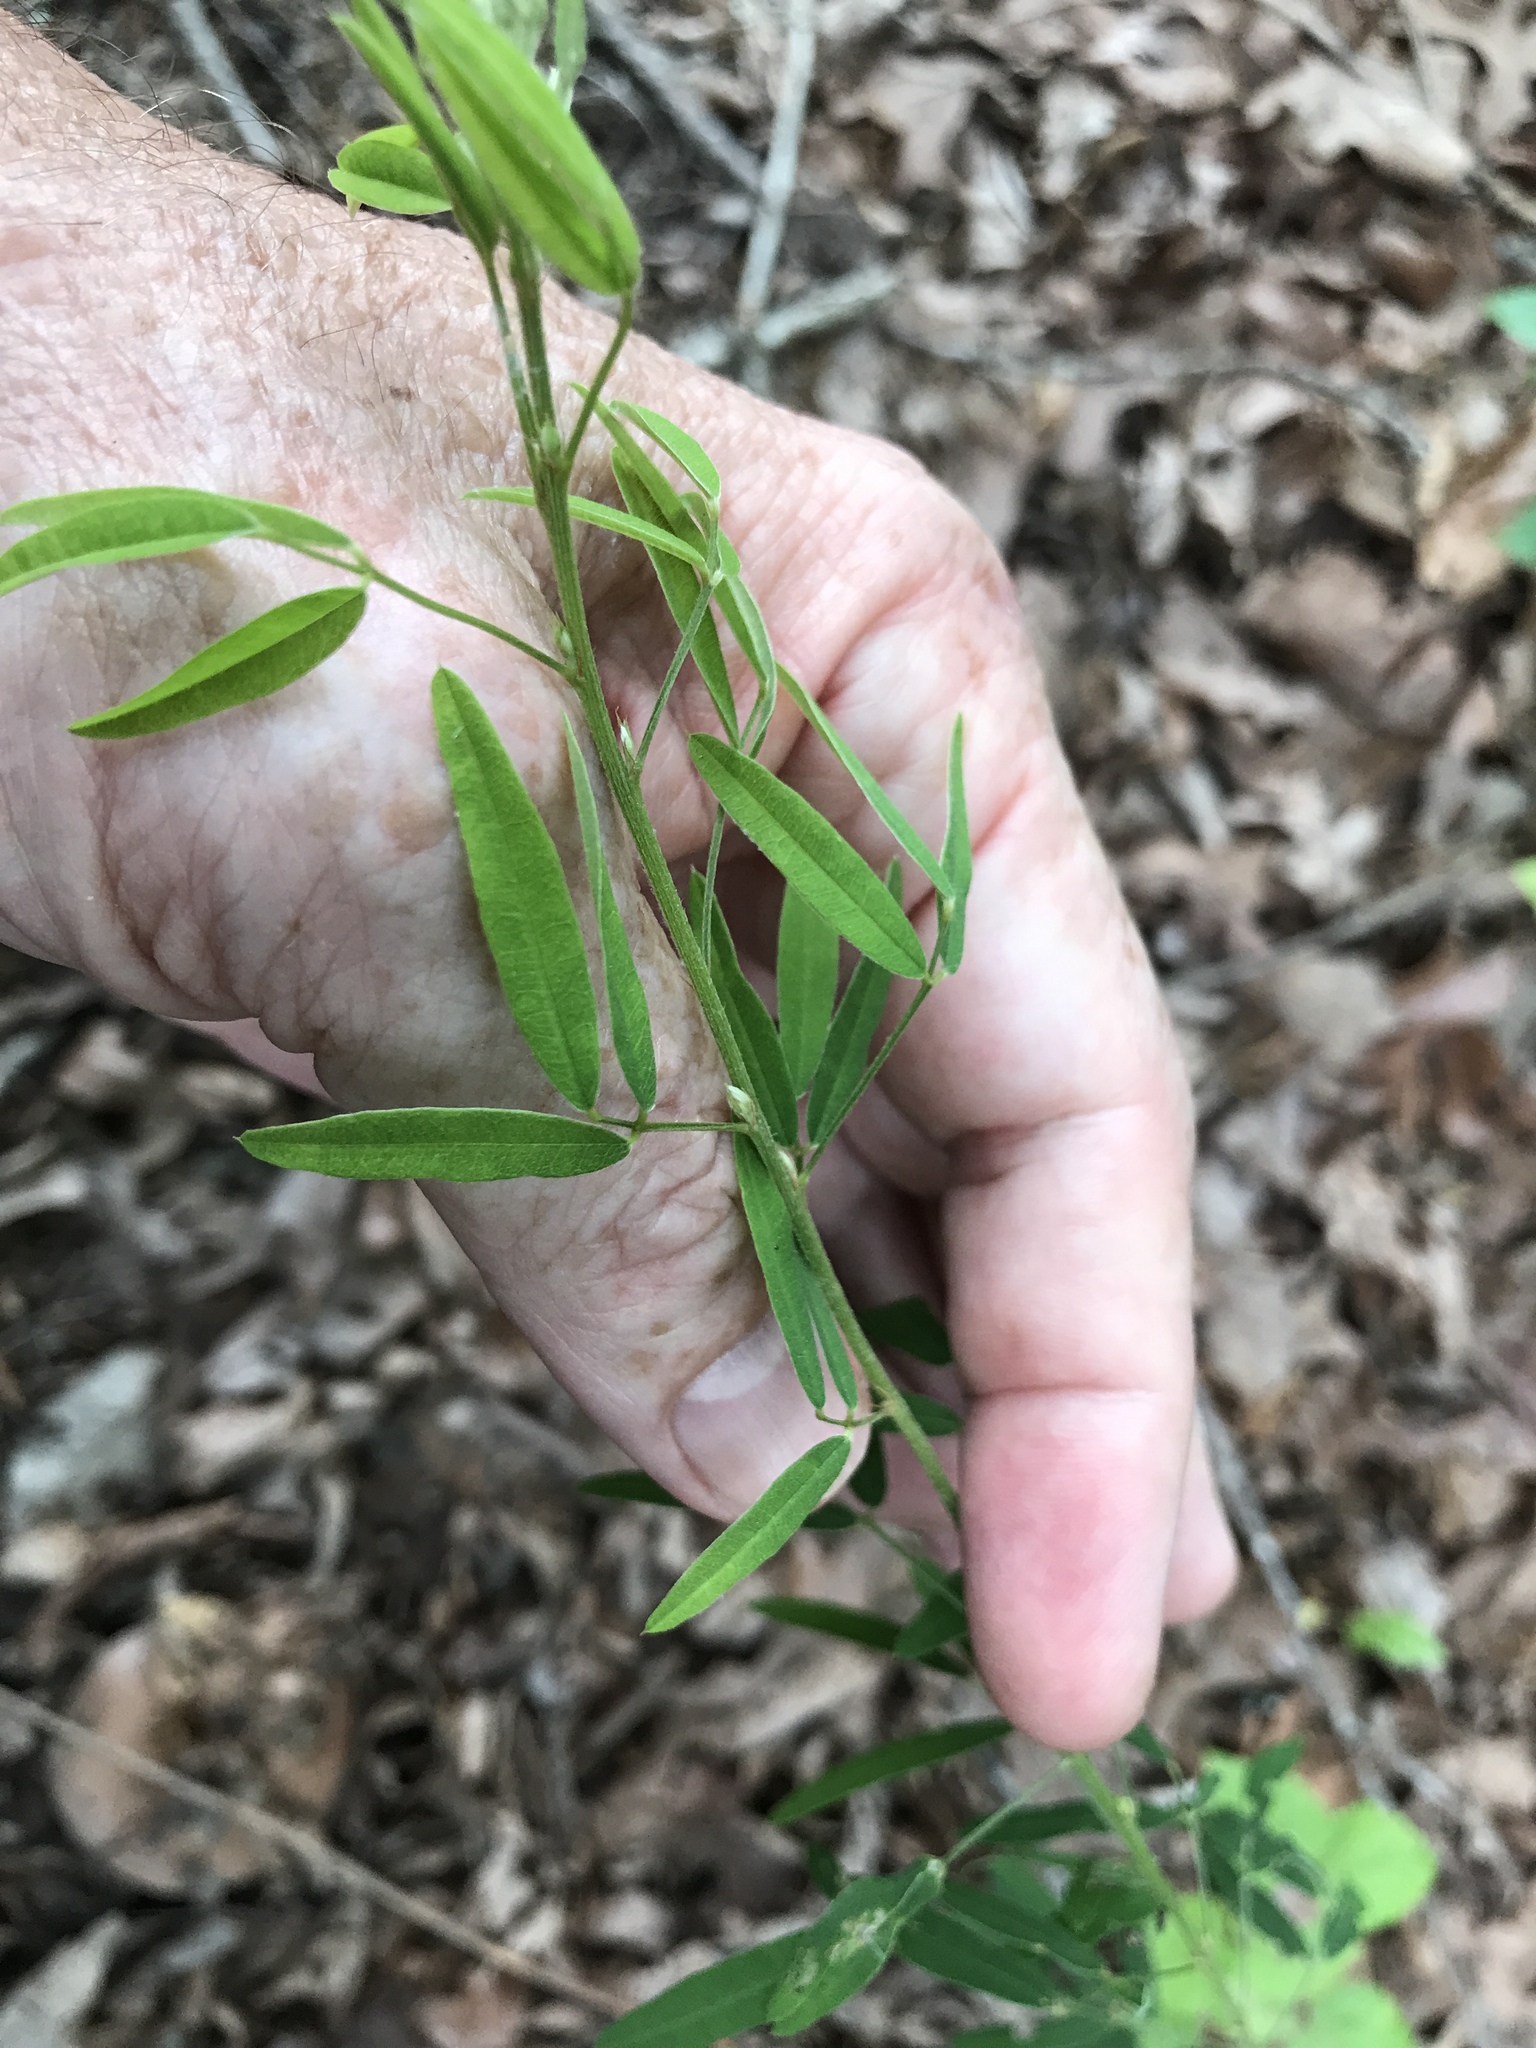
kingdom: Plantae
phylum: Tracheophyta
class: Magnoliopsida
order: Fabales
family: Fabaceae
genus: Lespedeza
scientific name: Lespedeza virginica
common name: Slender bush-clover
